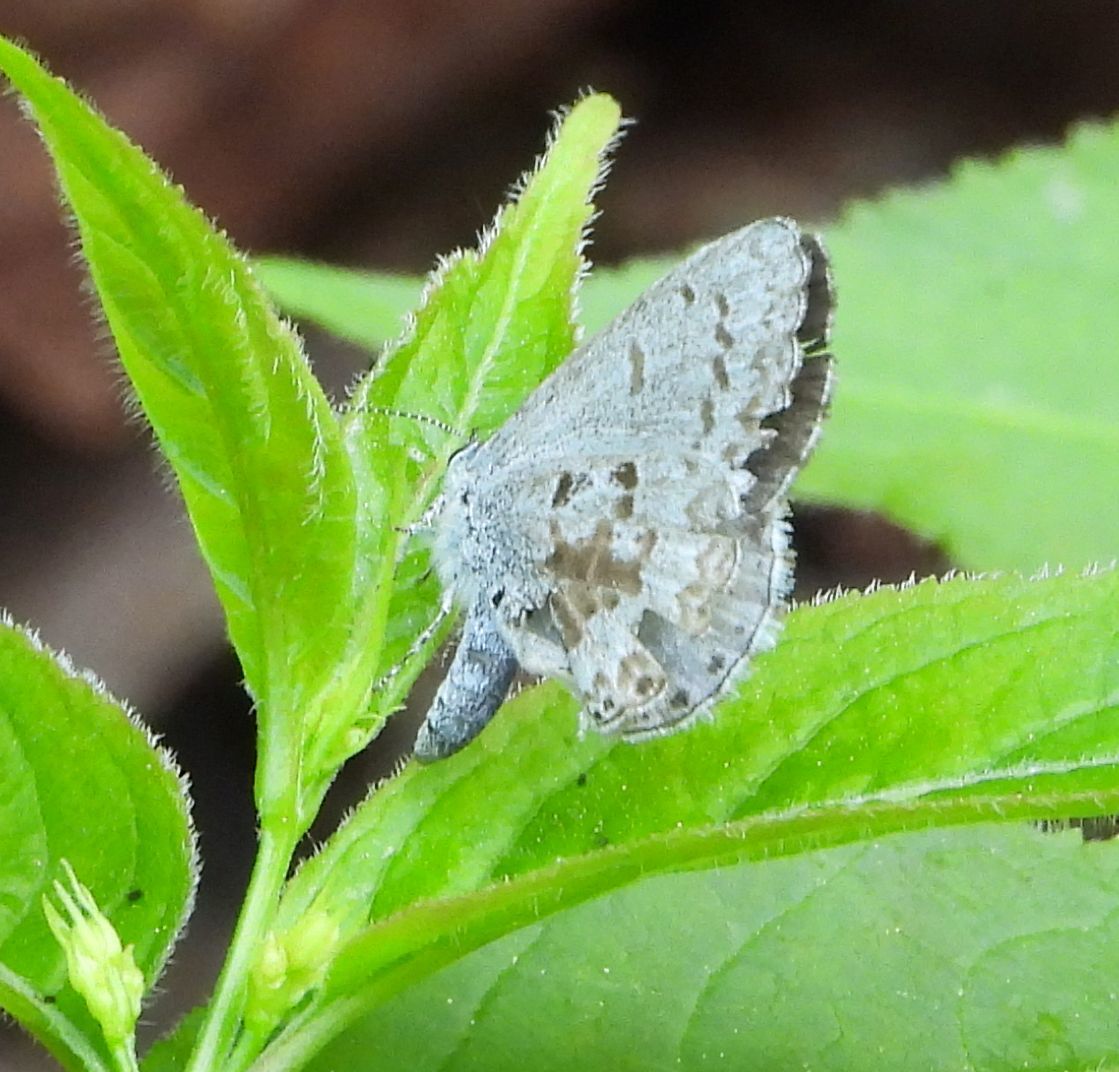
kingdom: Animalia
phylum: Arthropoda
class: Insecta
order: Lepidoptera
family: Lycaenidae
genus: Celastrina
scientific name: Celastrina lucia
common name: Lucia azure
